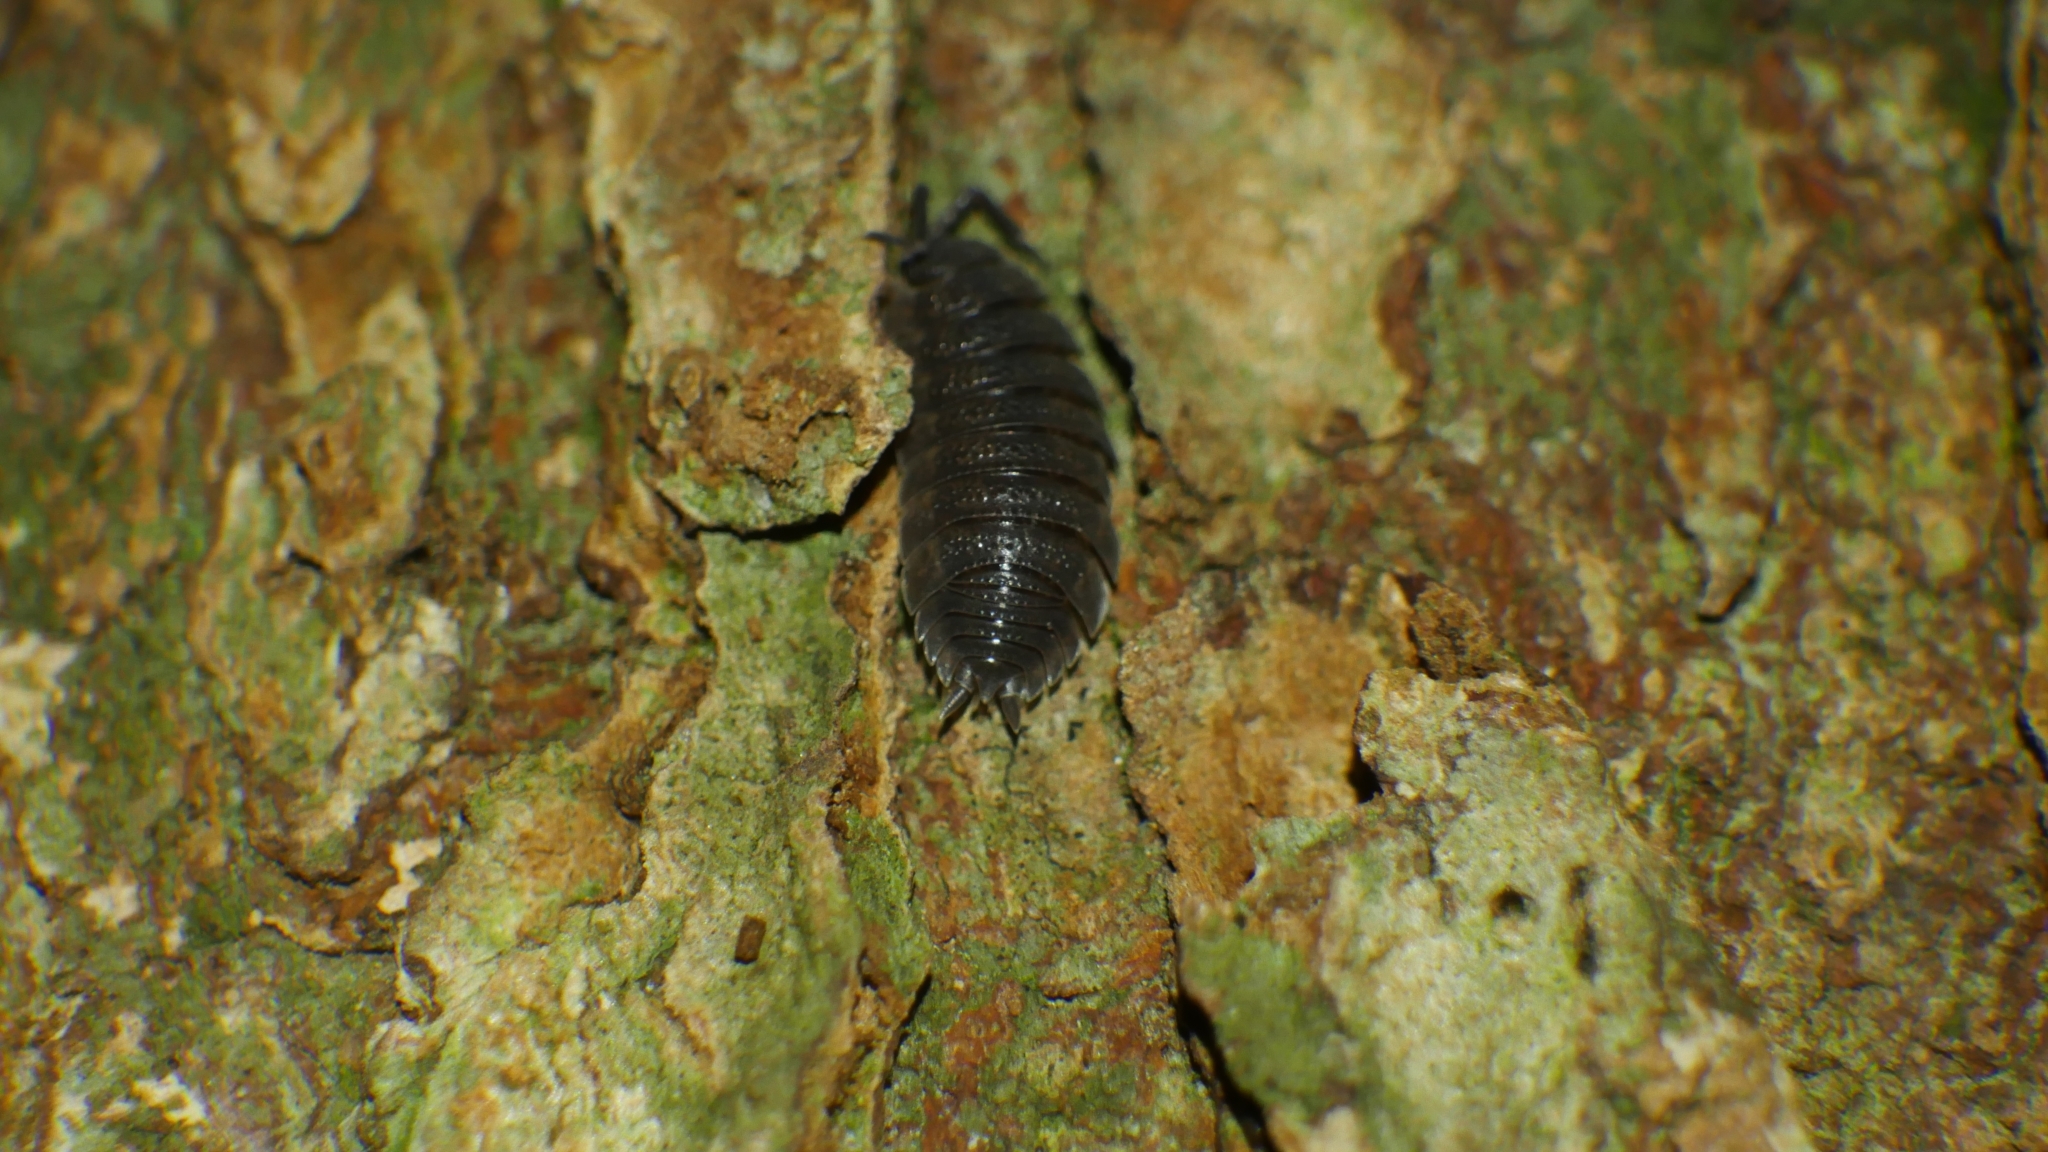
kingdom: Animalia
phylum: Arthropoda
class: Malacostraca
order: Isopoda
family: Porcellionidae
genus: Porcellio
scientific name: Porcellio scaber
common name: Common rough woodlouse
